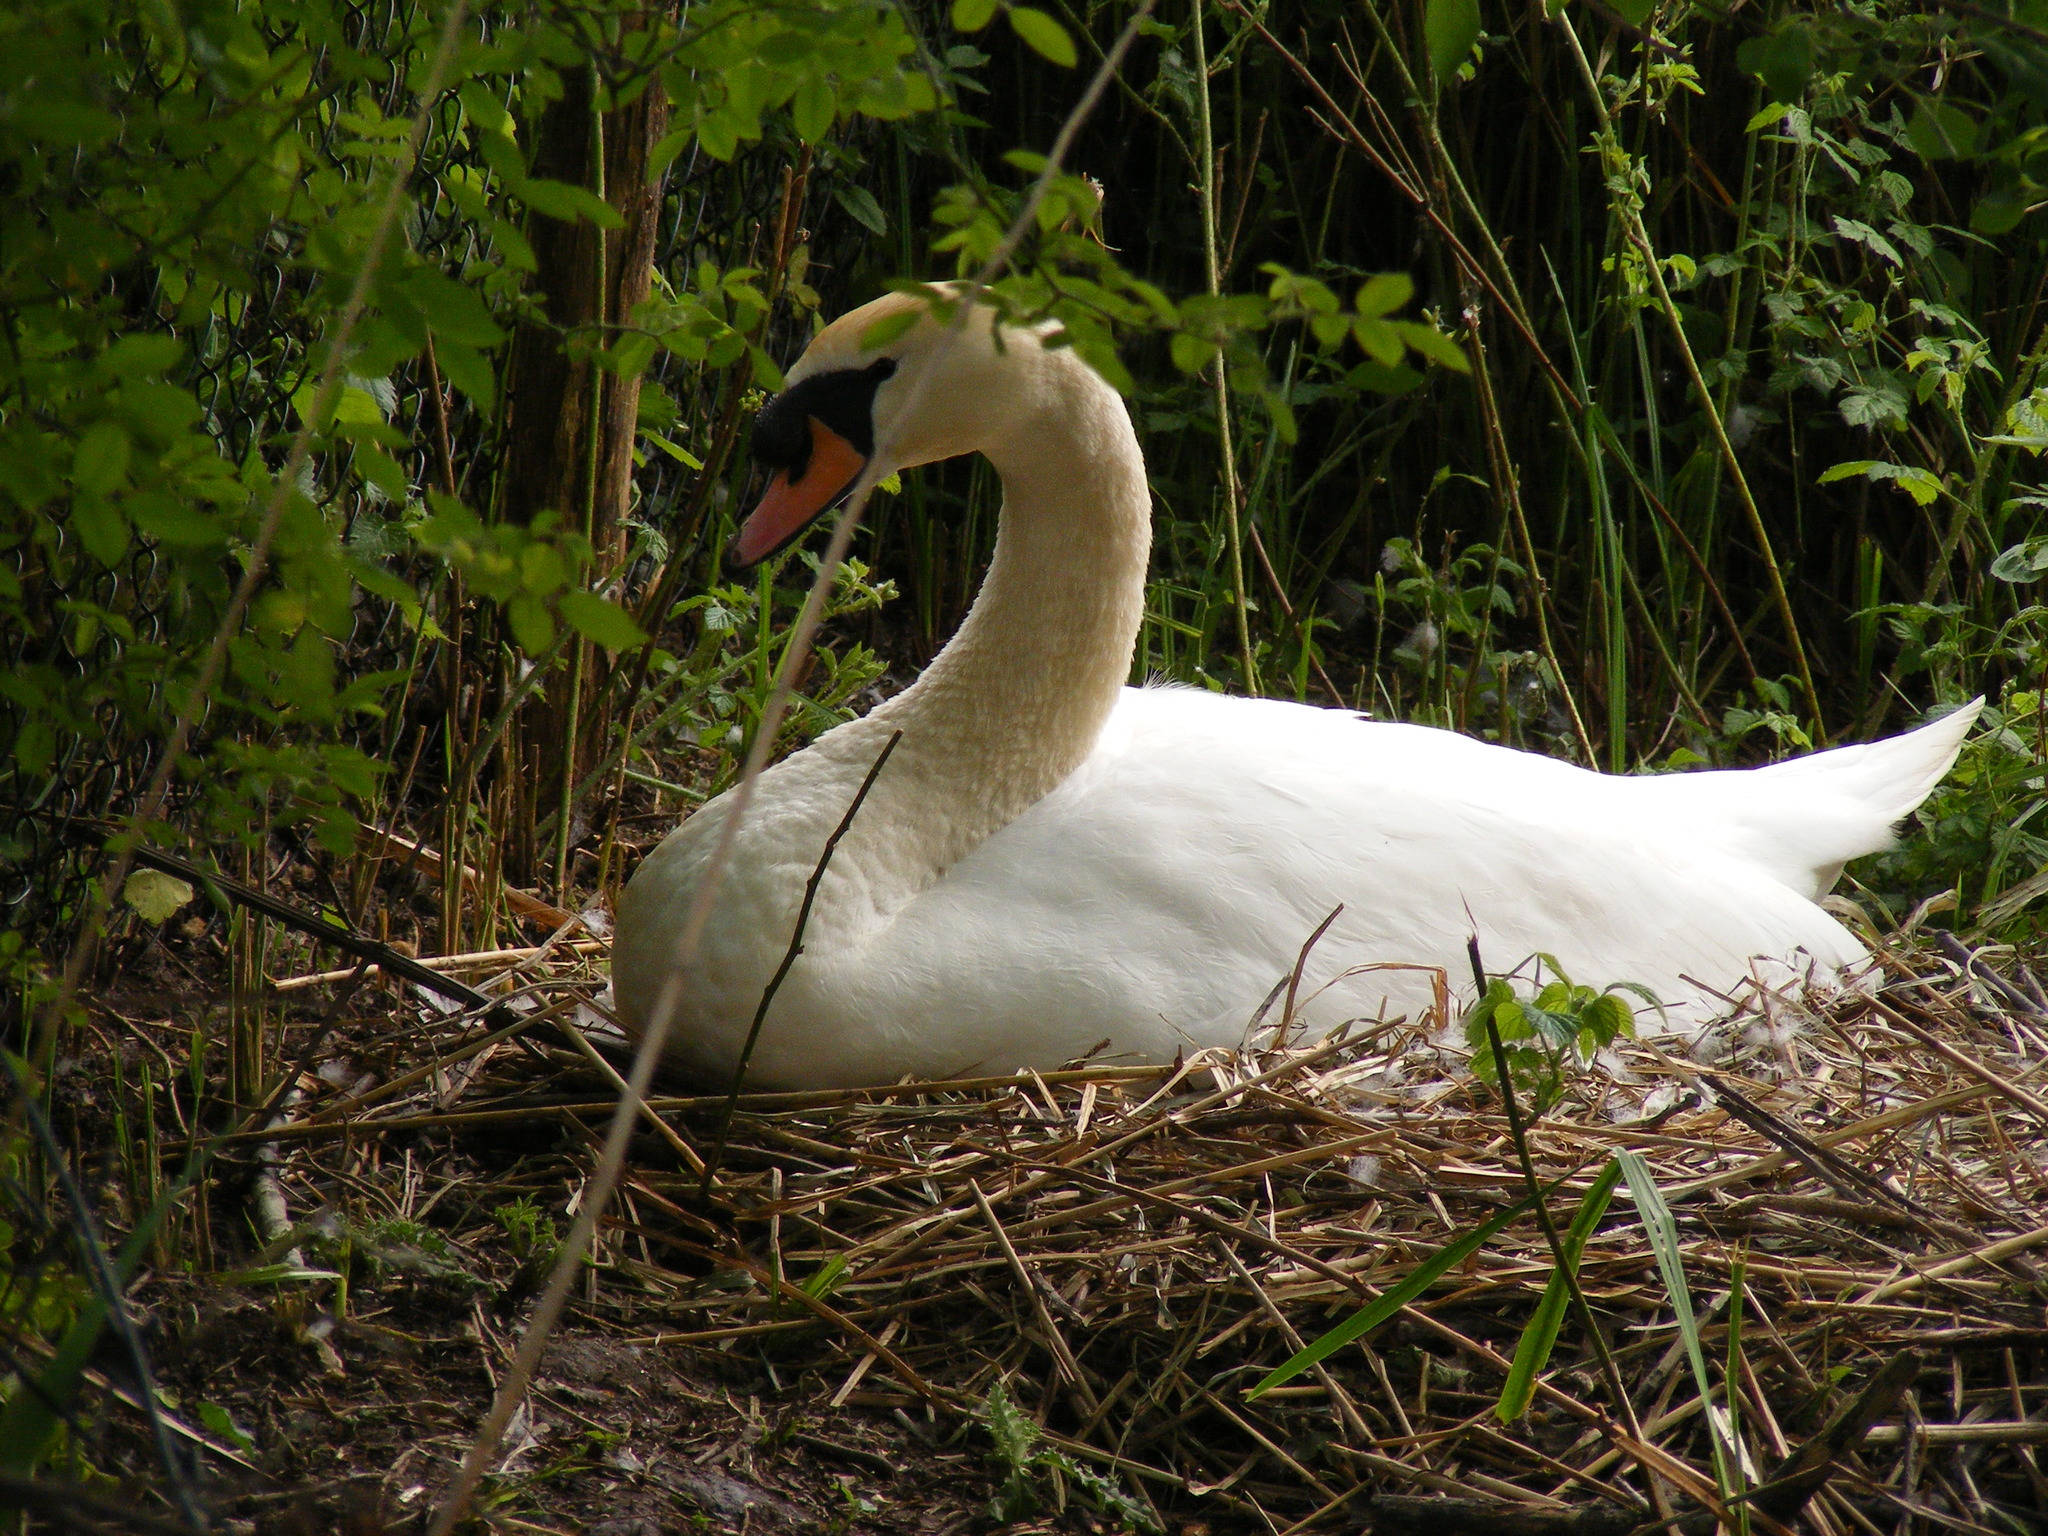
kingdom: Animalia
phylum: Chordata
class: Aves
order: Anseriformes
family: Anatidae
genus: Cygnus
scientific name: Cygnus olor
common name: Mute swan
